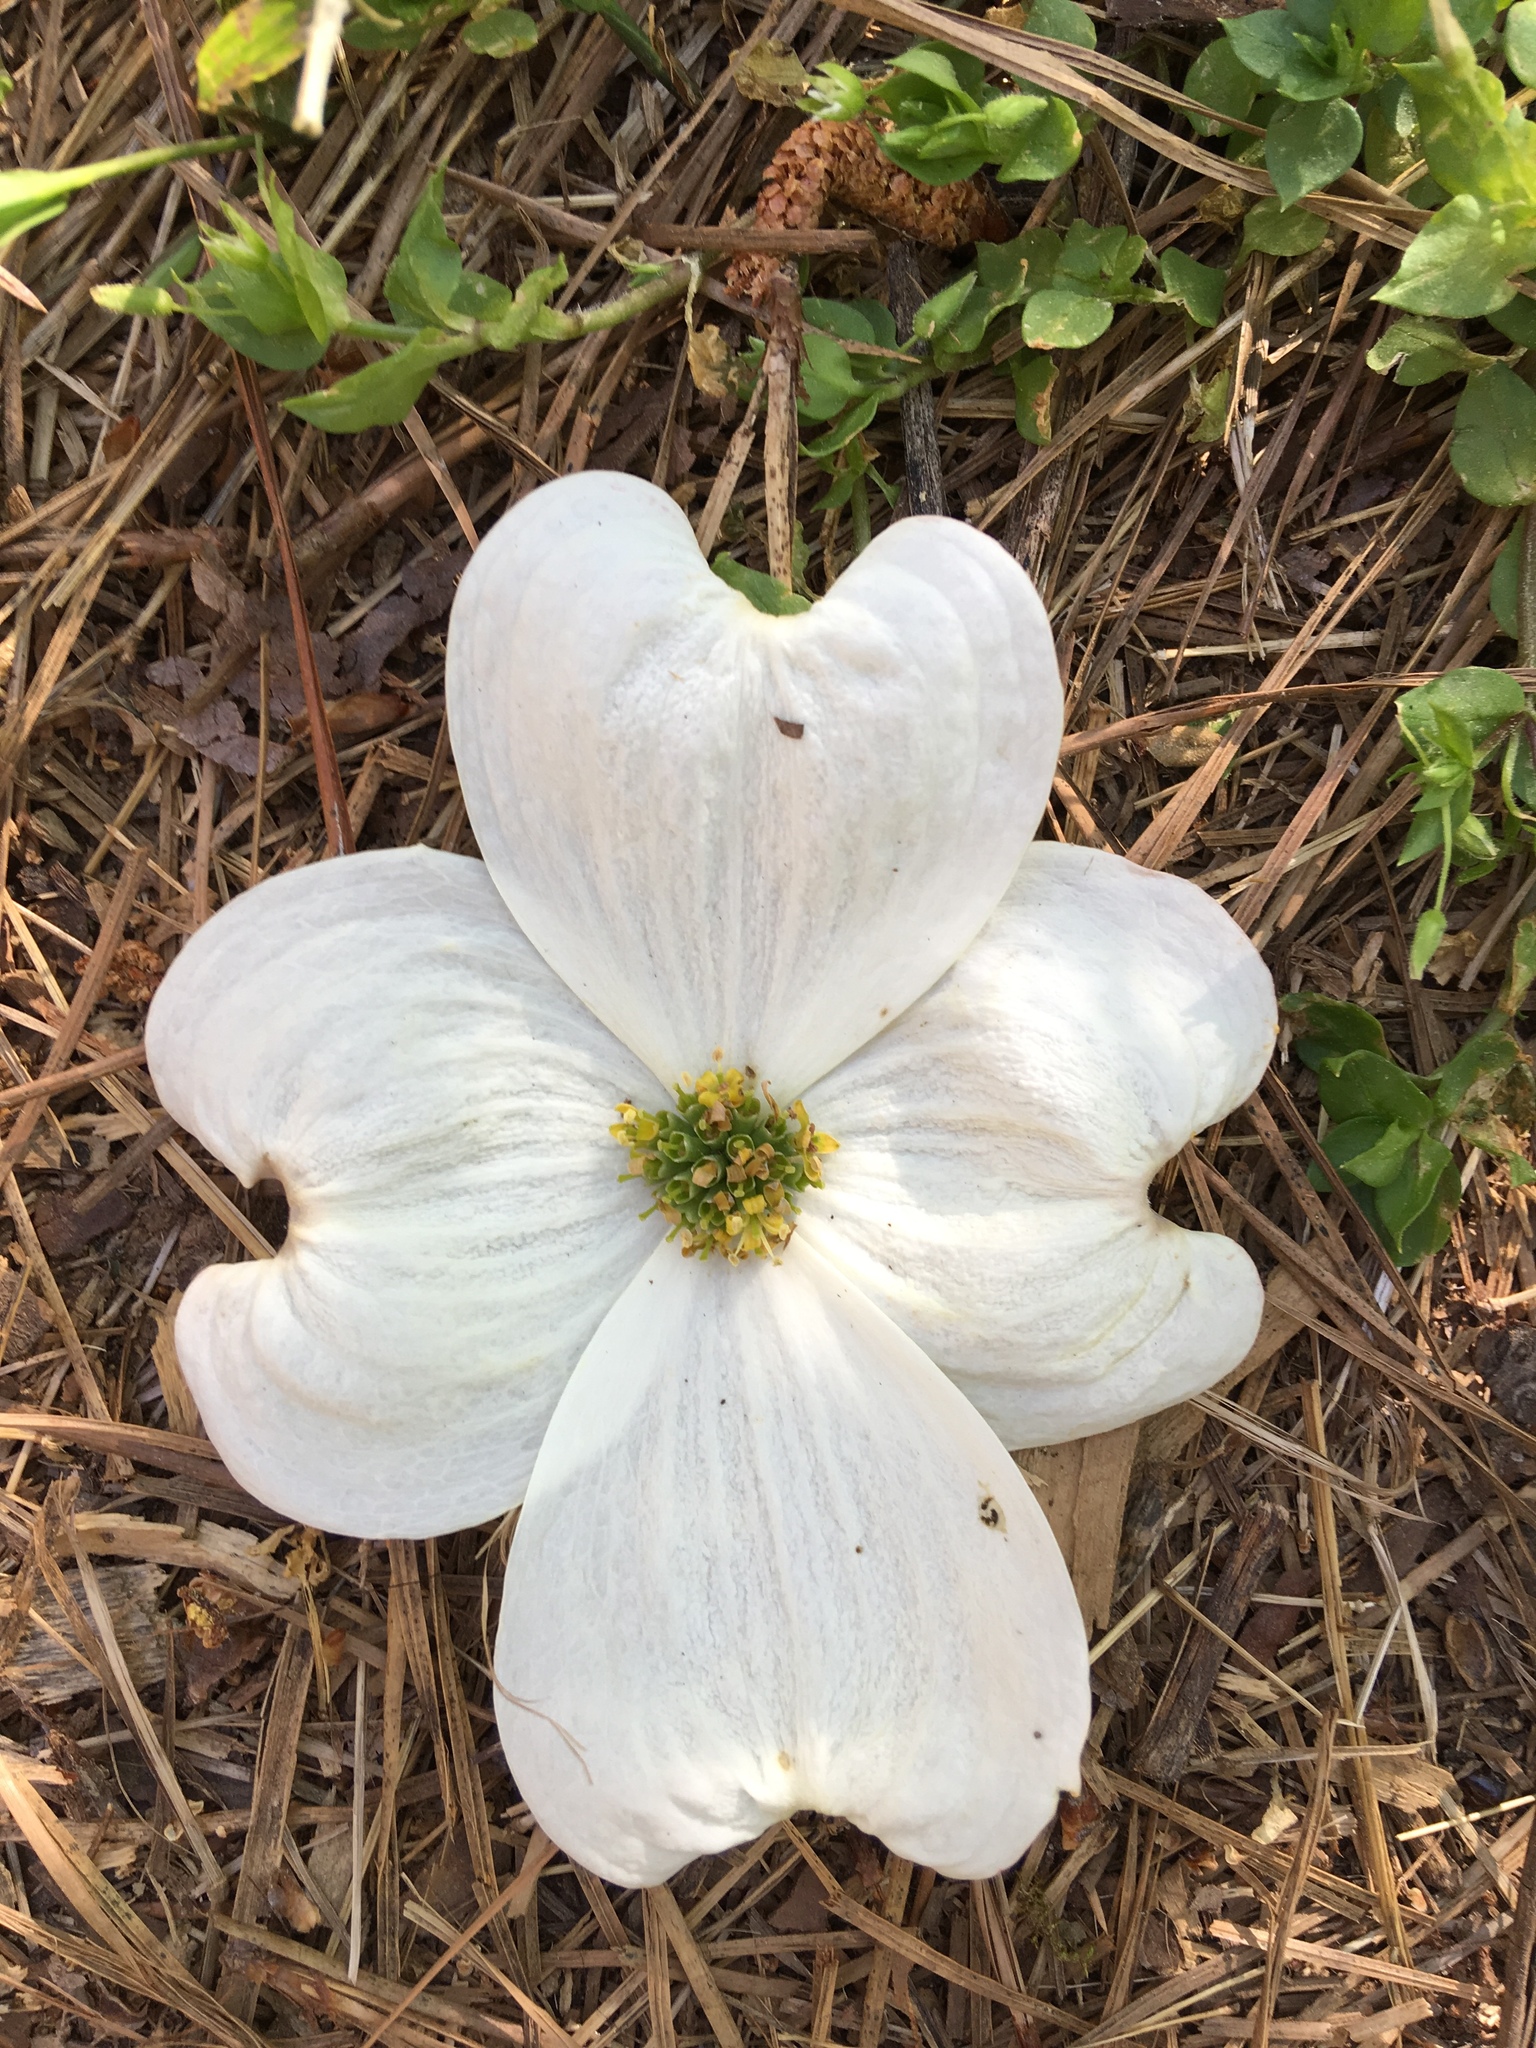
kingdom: Plantae
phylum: Tracheophyta
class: Magnoliopsida
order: Cornales
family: Cornaceae
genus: Cornus
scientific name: Cornus florida
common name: Flowering dogwood
